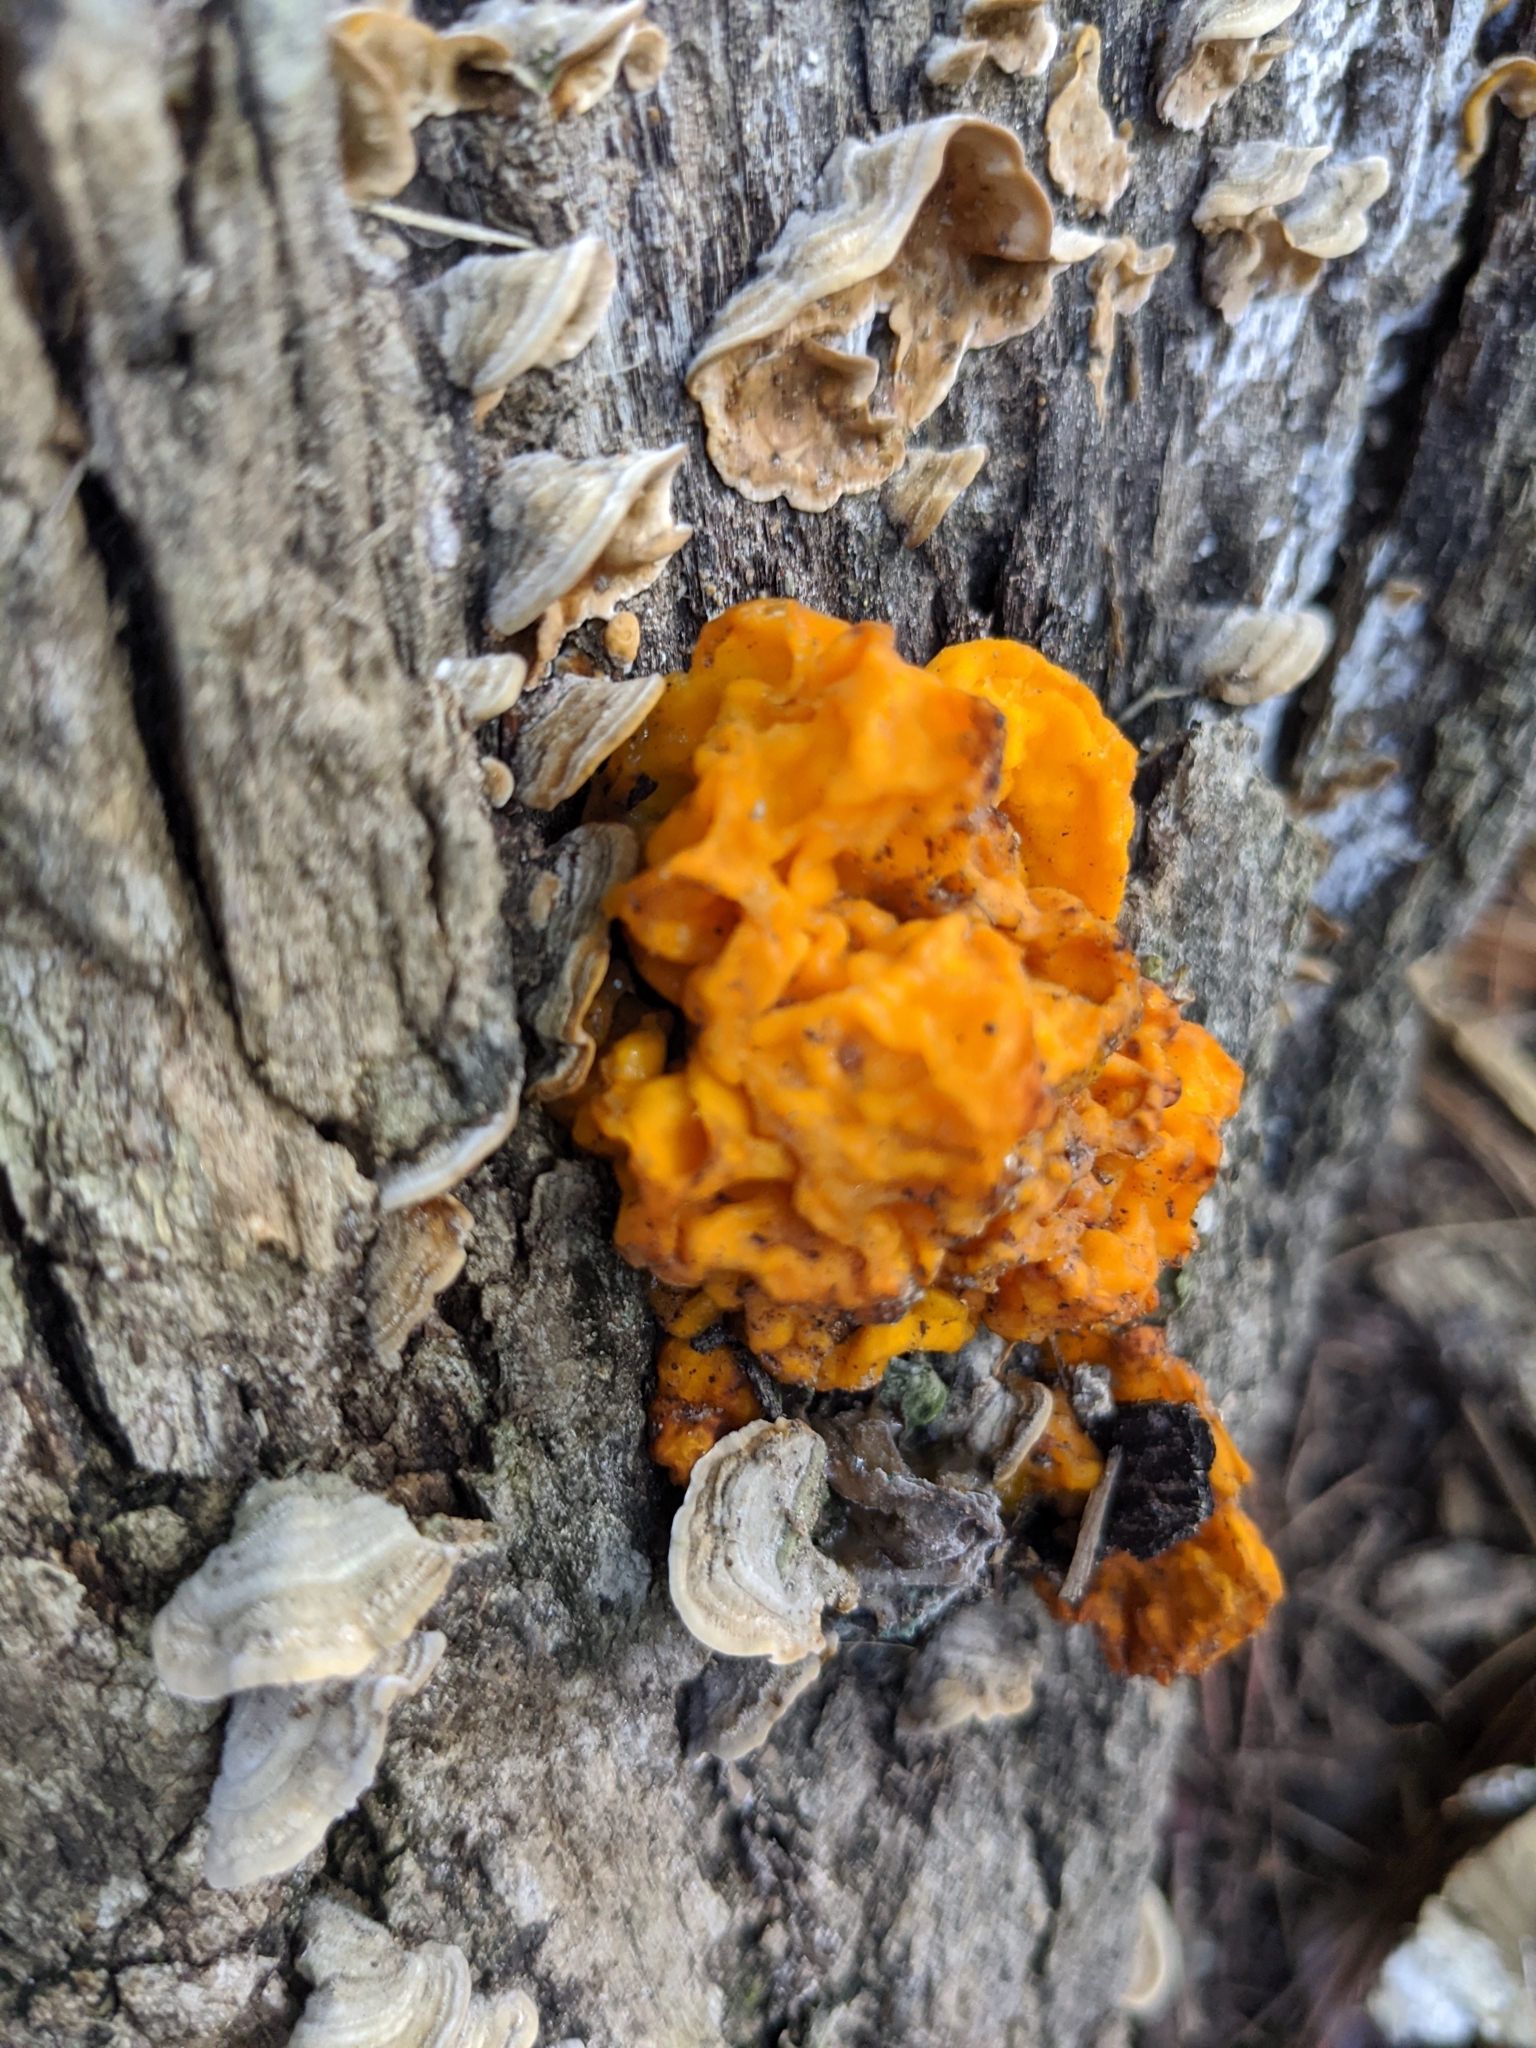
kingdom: Fungi
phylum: Basidiomycota
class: Tremellomycetes
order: Tremellales
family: Naemateliaceae
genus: Naematelia
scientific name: Naematelia aurantia
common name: Golden ear
